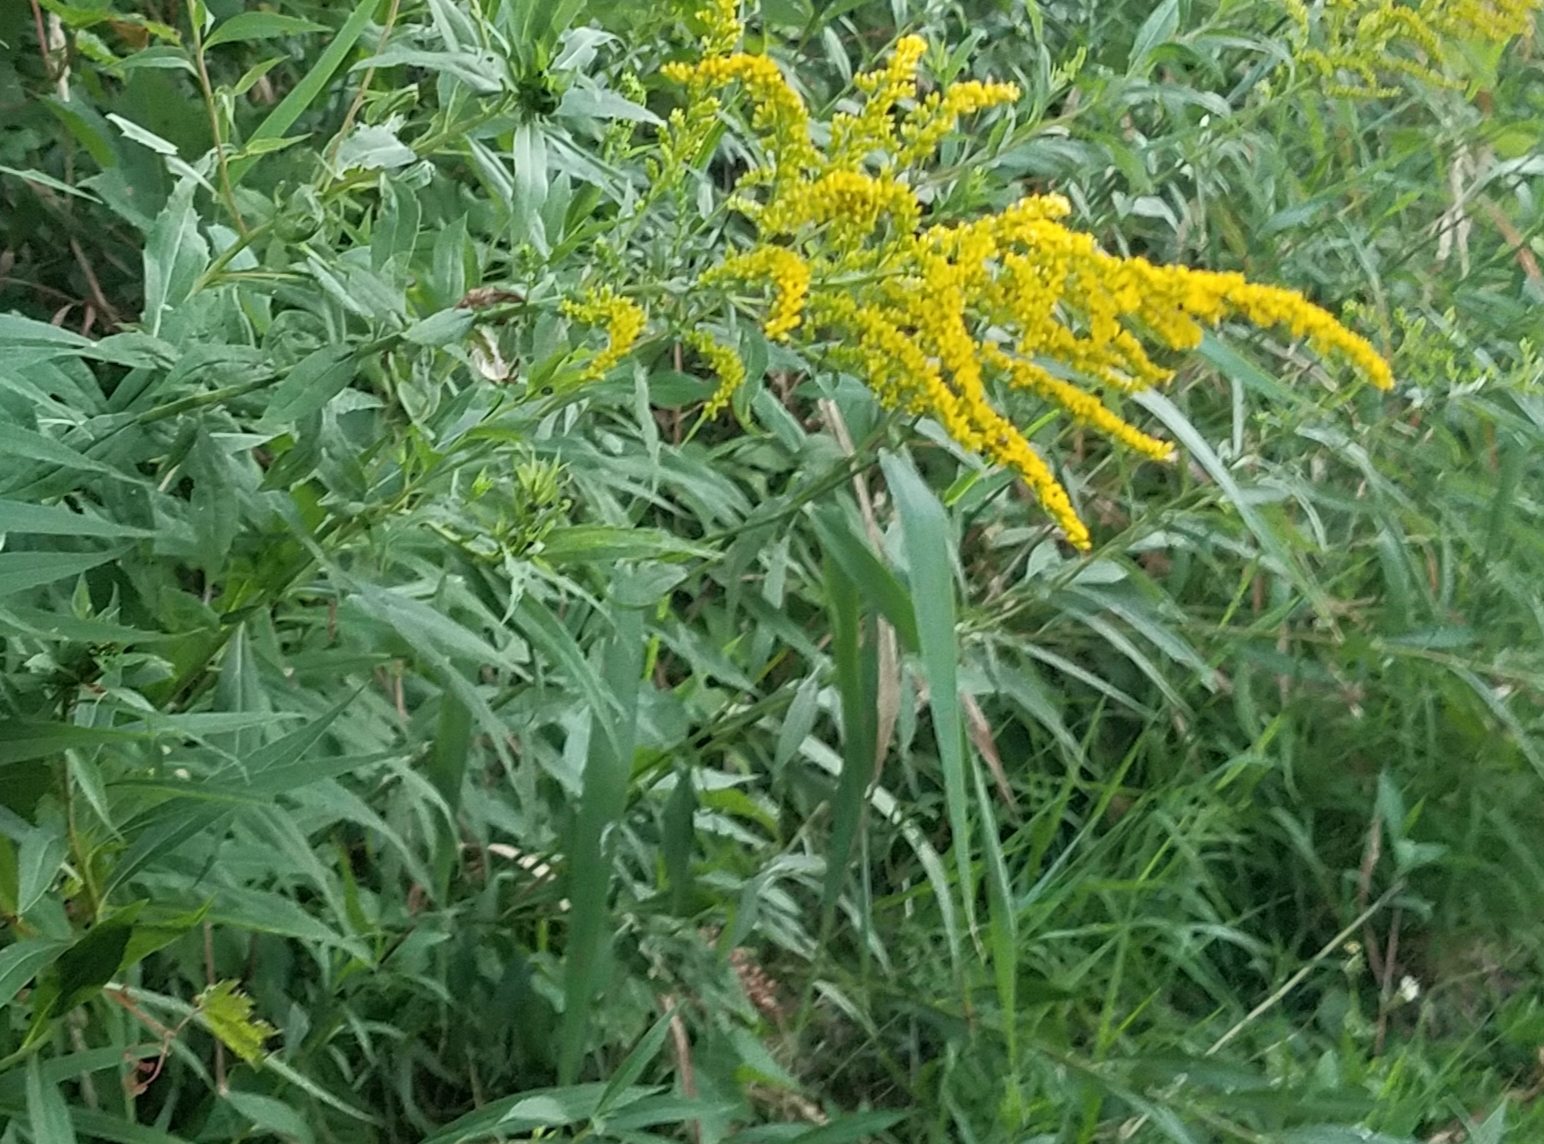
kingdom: Plantae
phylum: Tracheophyta
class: Magnoliopsida
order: Asterales
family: Asteraceae
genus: Solidago
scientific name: Solidago altissima
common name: Late goldenrod
